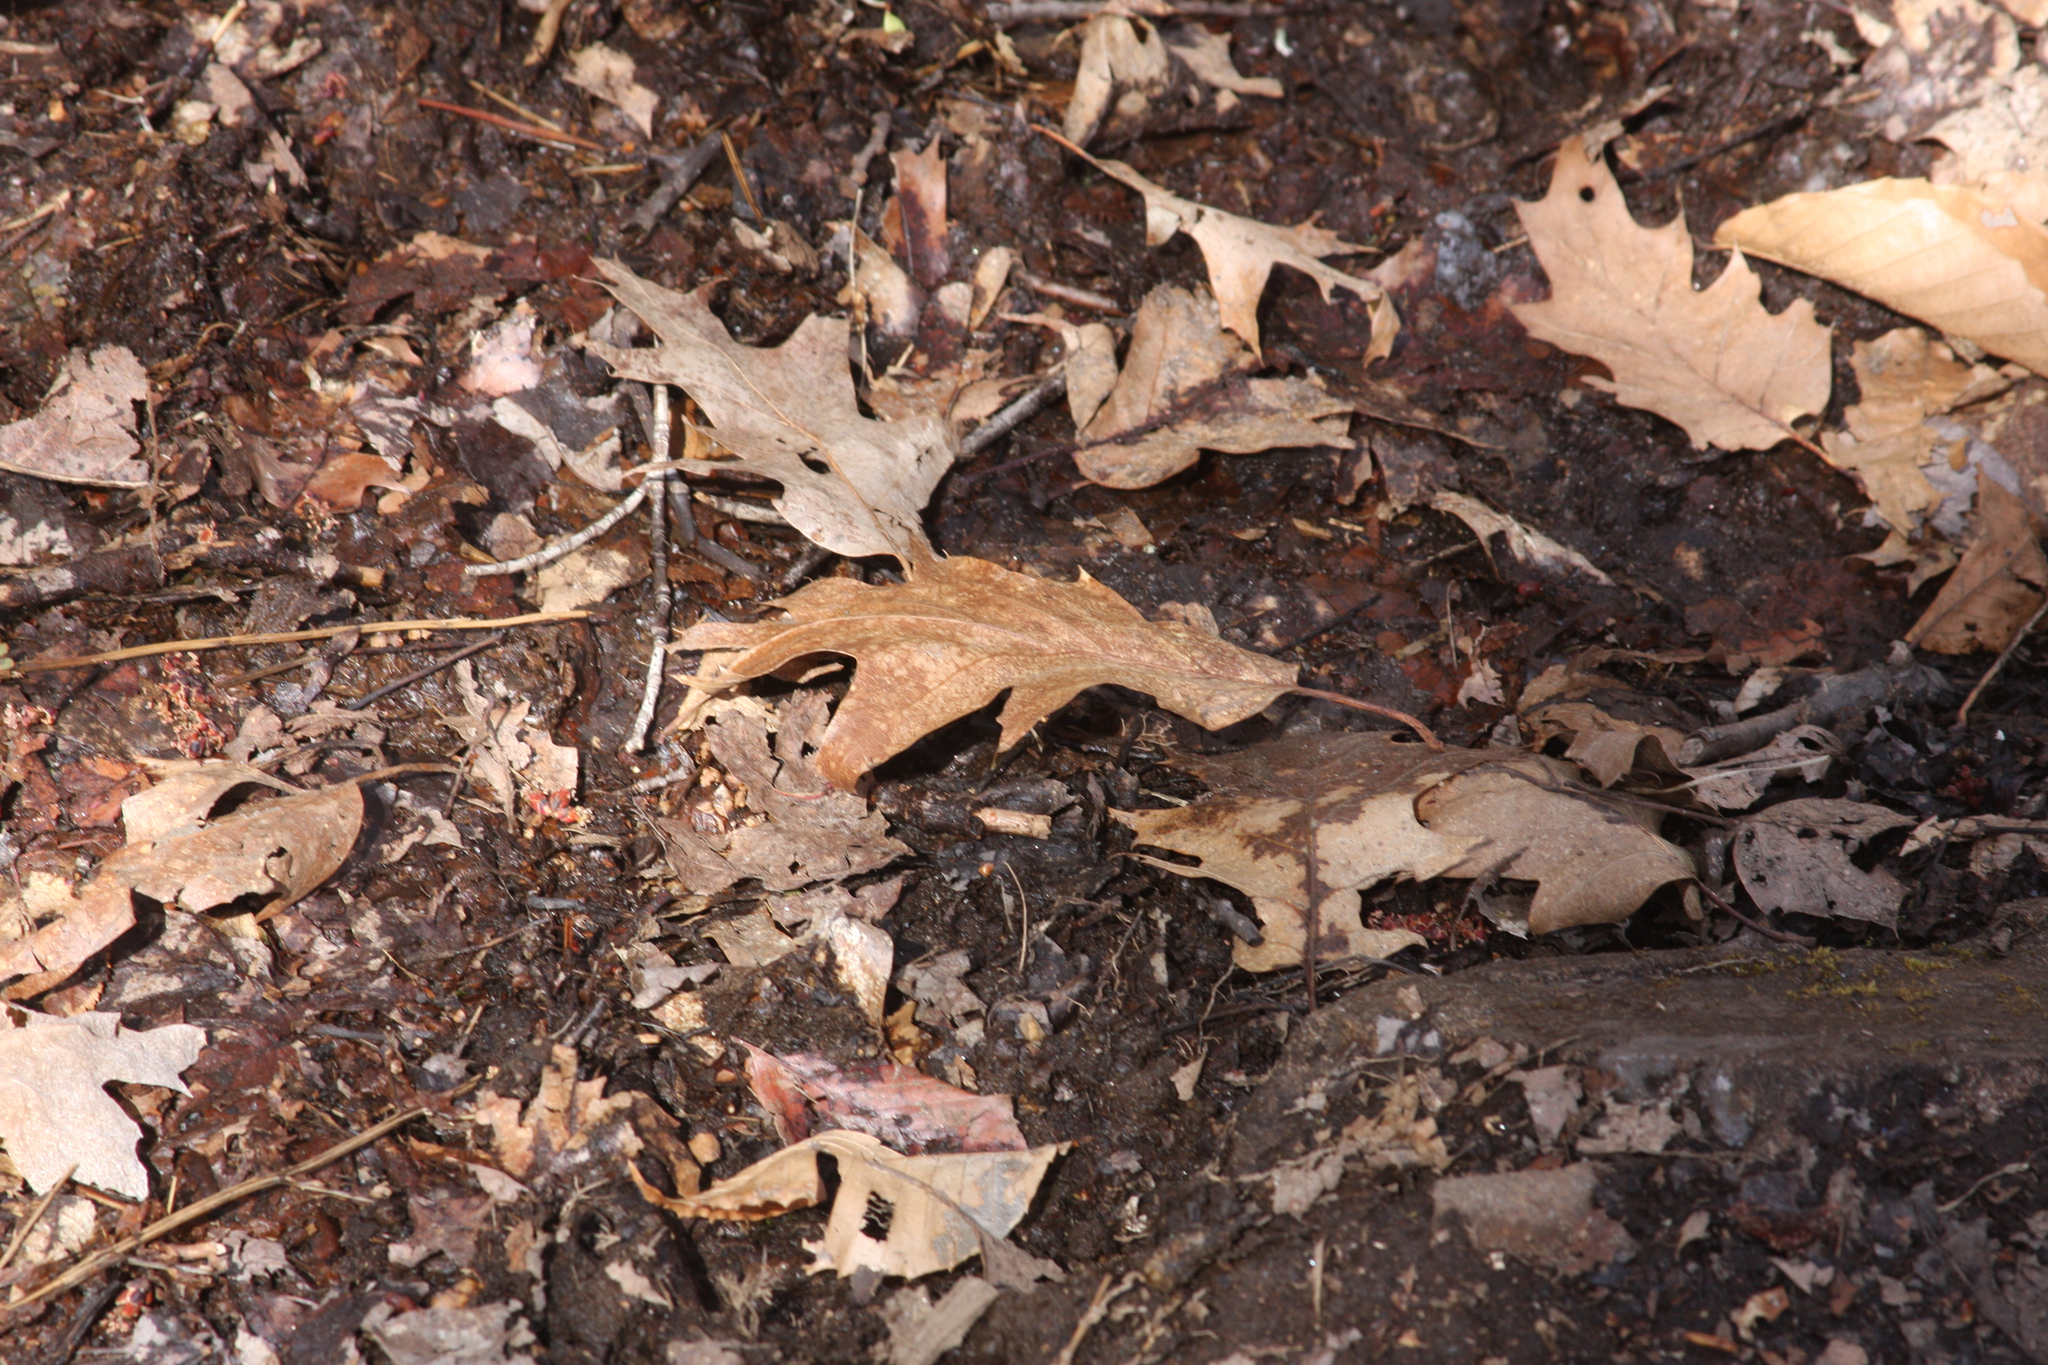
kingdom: Plantae
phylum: Tracheophyta
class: Magnoliopsida
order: Fagales
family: Fagaceae
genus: Quercus
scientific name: Quercus rubra
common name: Red oak
